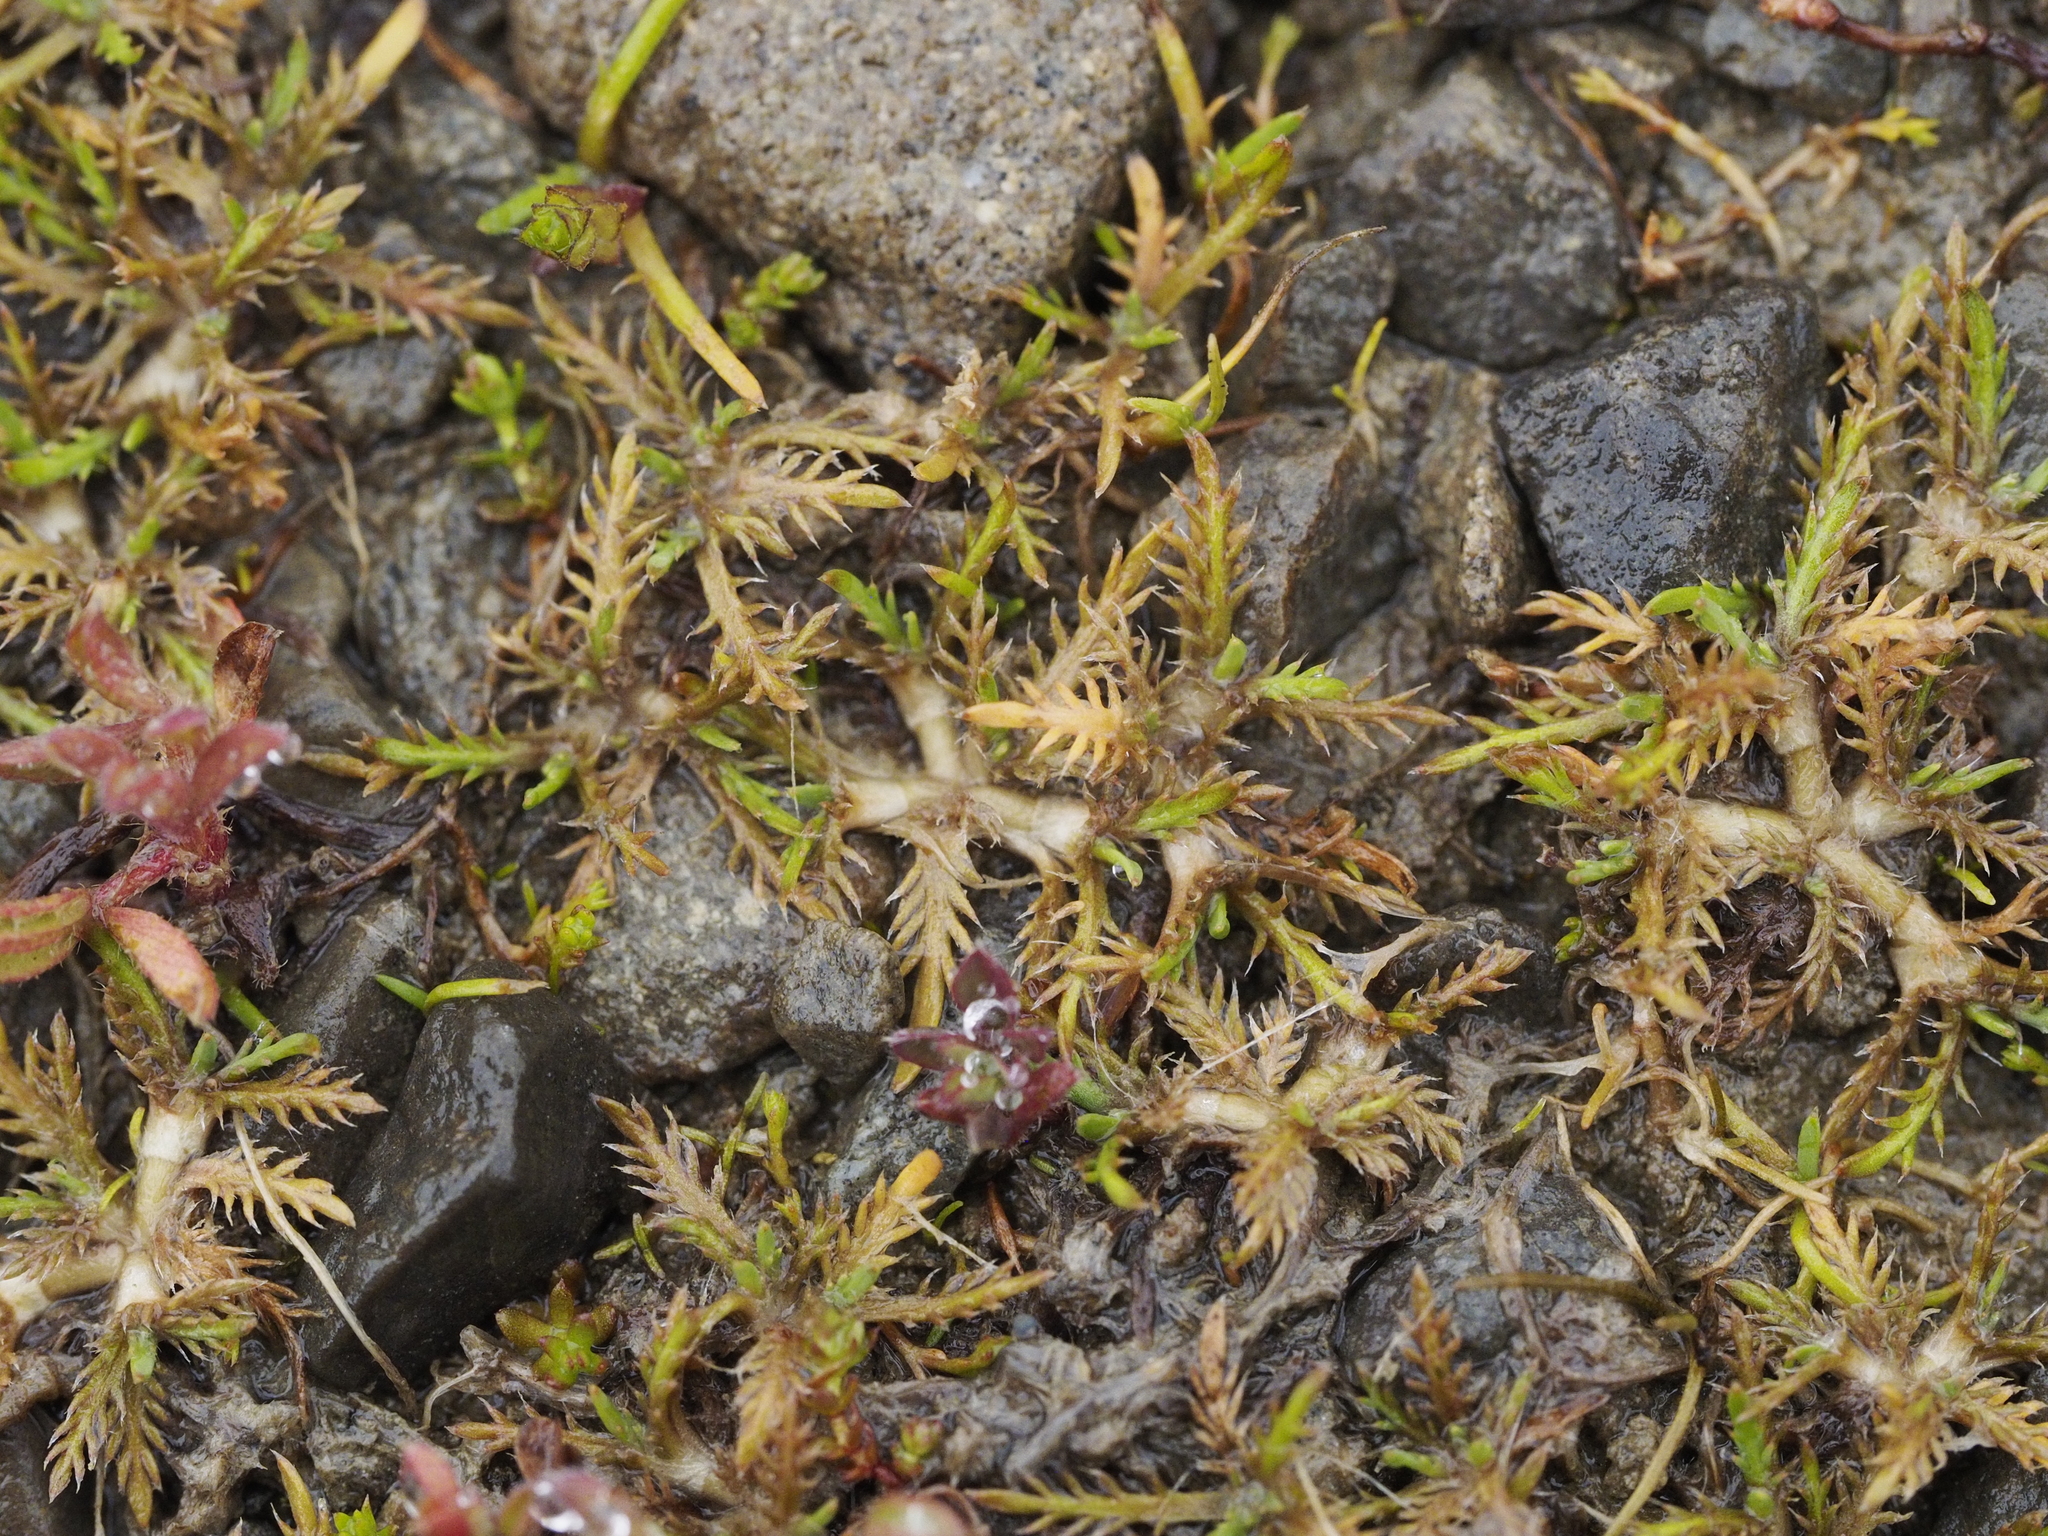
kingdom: Plantae
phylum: Tracheophyta
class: Magnoliopsida
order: Asterales
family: Asteraceae
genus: Leptinella
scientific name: Leptinella maniototo
